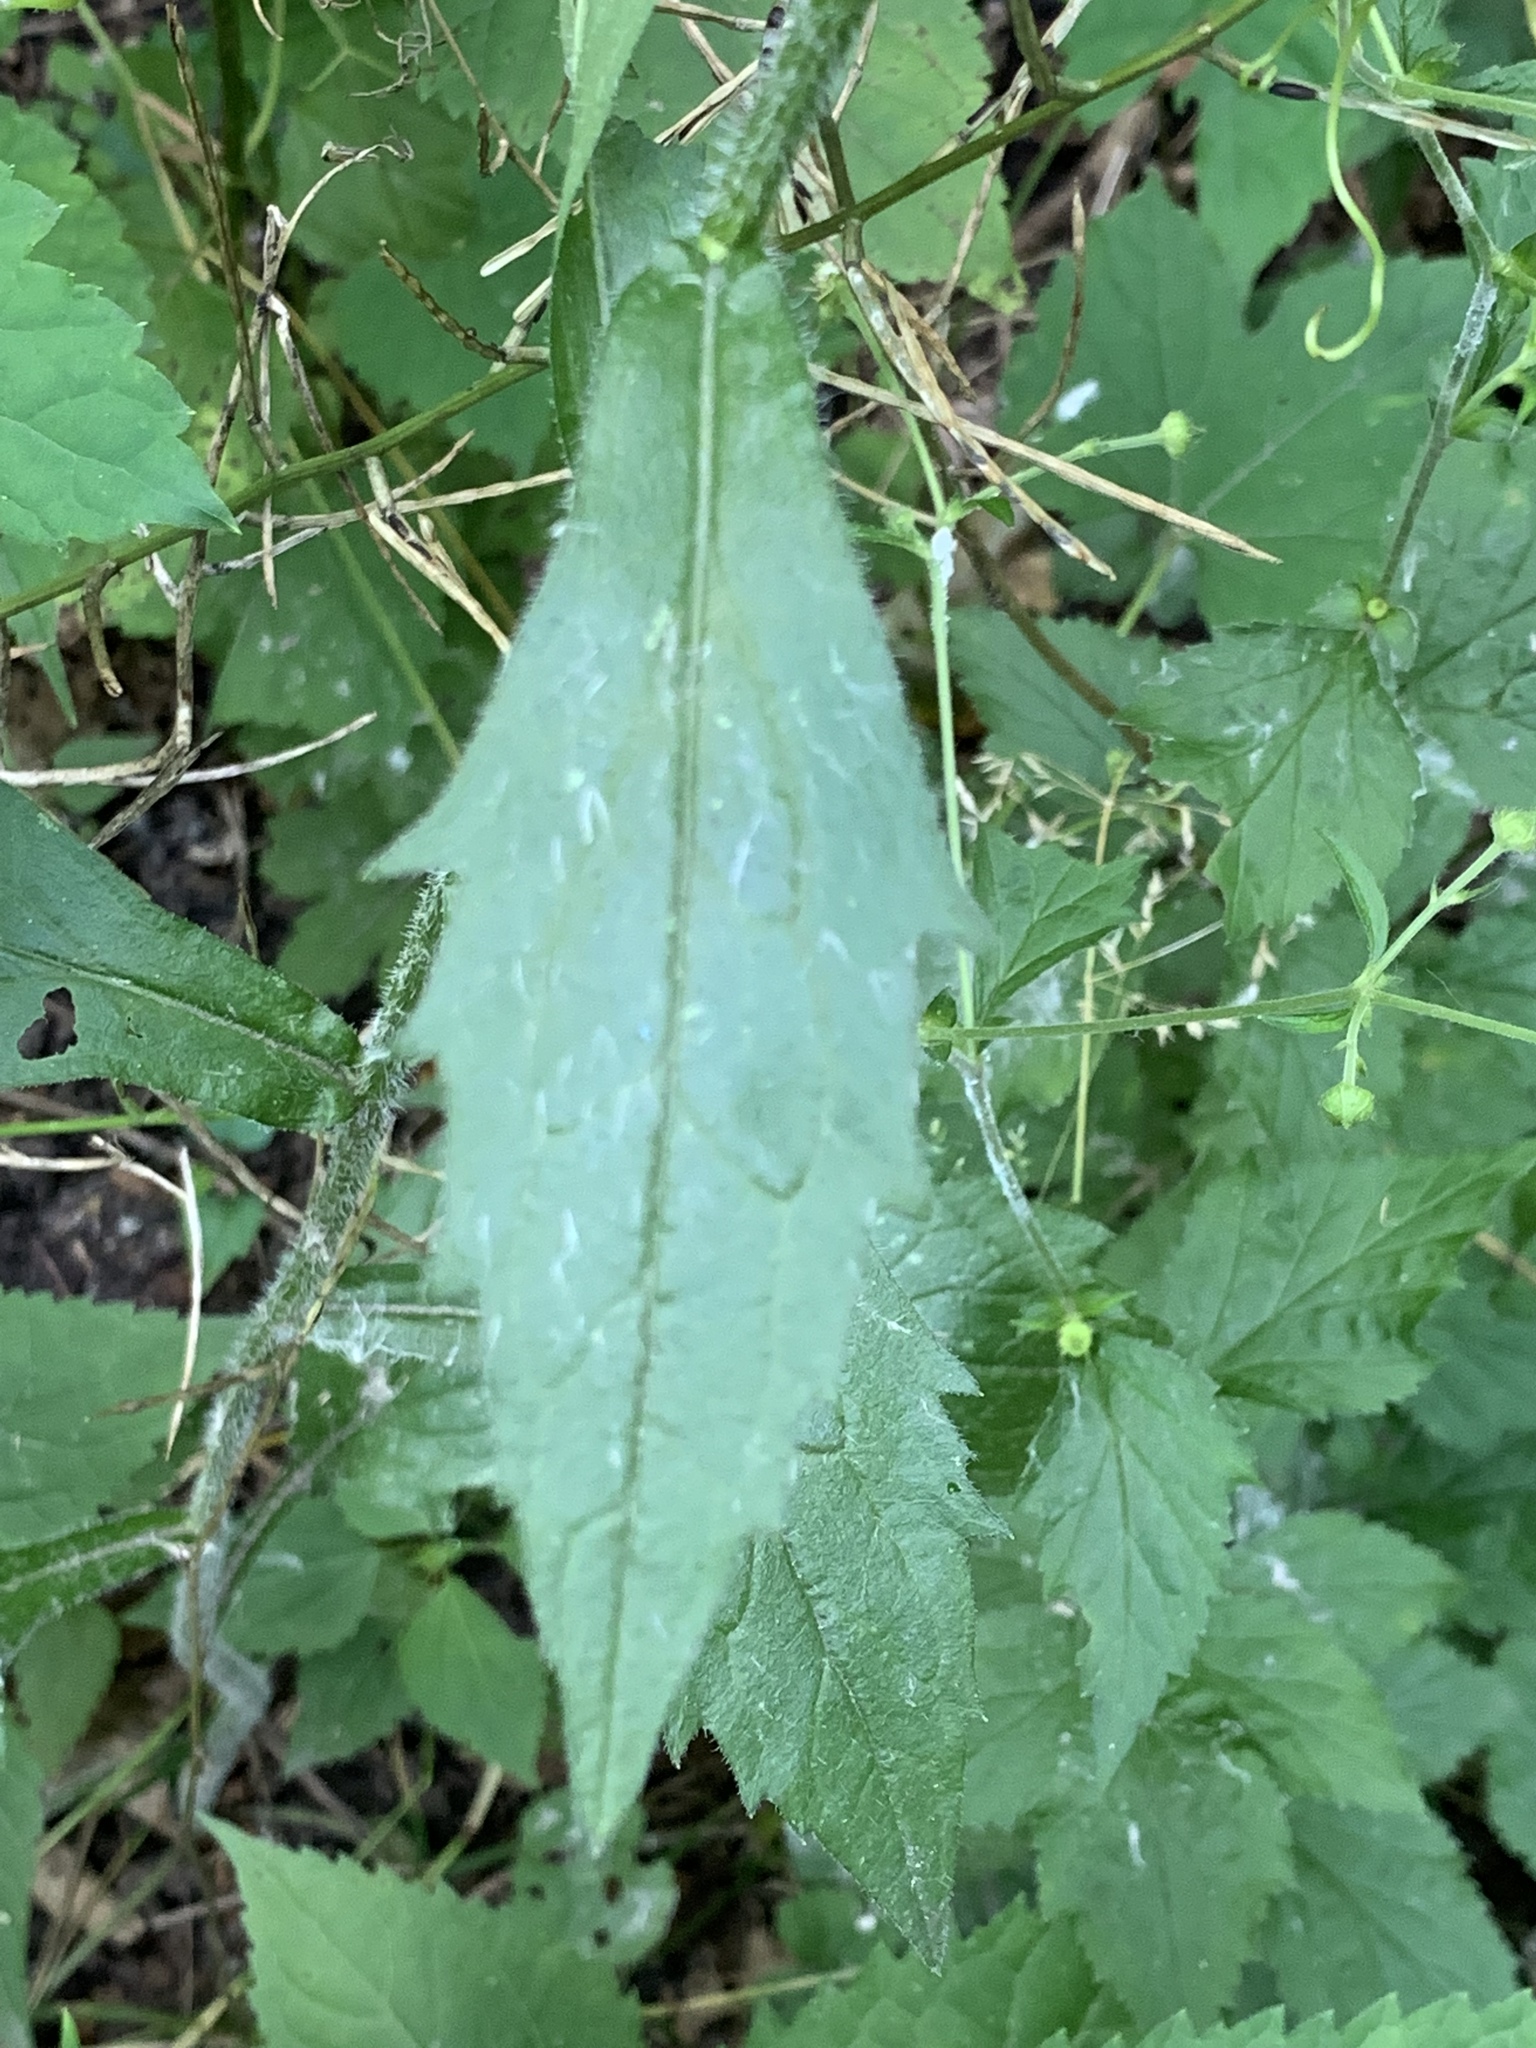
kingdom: Plantae
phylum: Tracheophyta
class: Magnoliopsida
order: Asterales
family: Asteraceae
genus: Erigeron
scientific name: Erigeron annuus
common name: Tall fleabane
